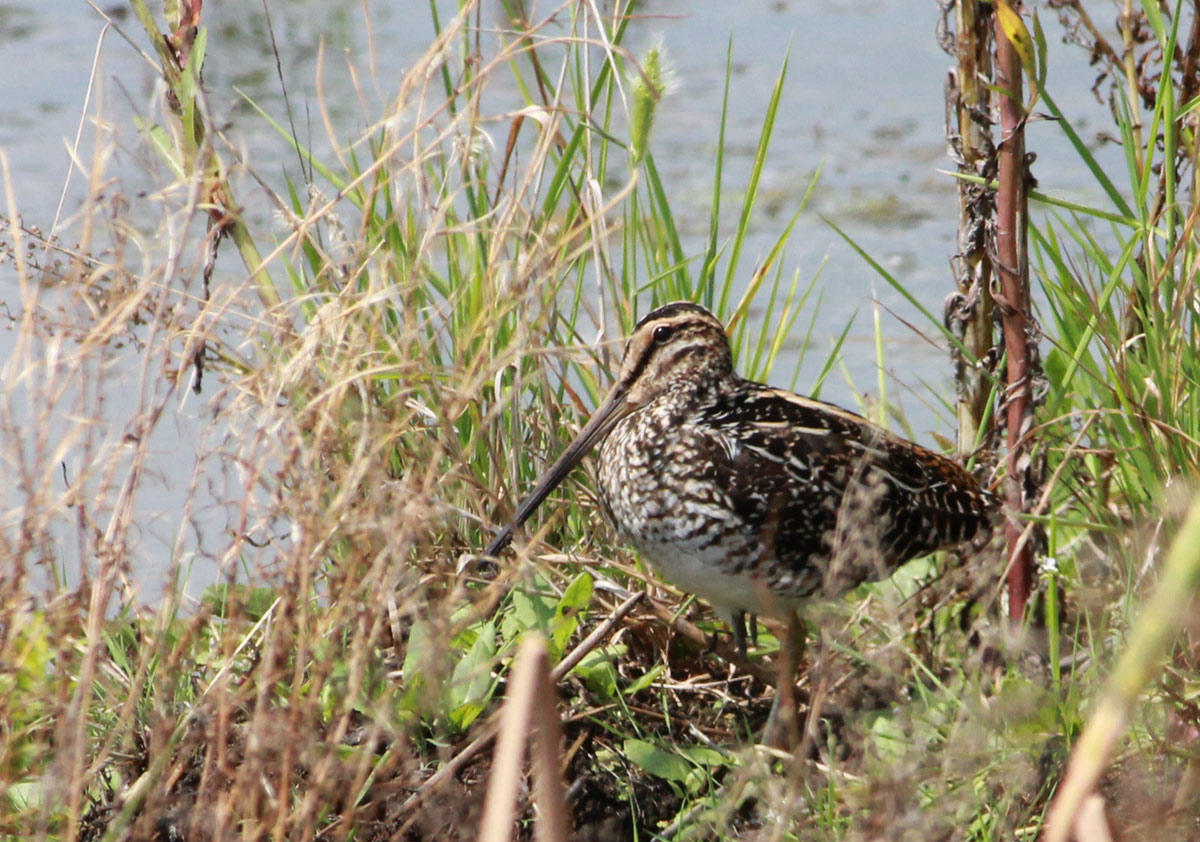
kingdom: Animalia
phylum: Chordata
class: Aves
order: Charadriiformes
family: Scolopacidae
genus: Gallinago
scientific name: Gallinago nigripennis
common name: African snipe
